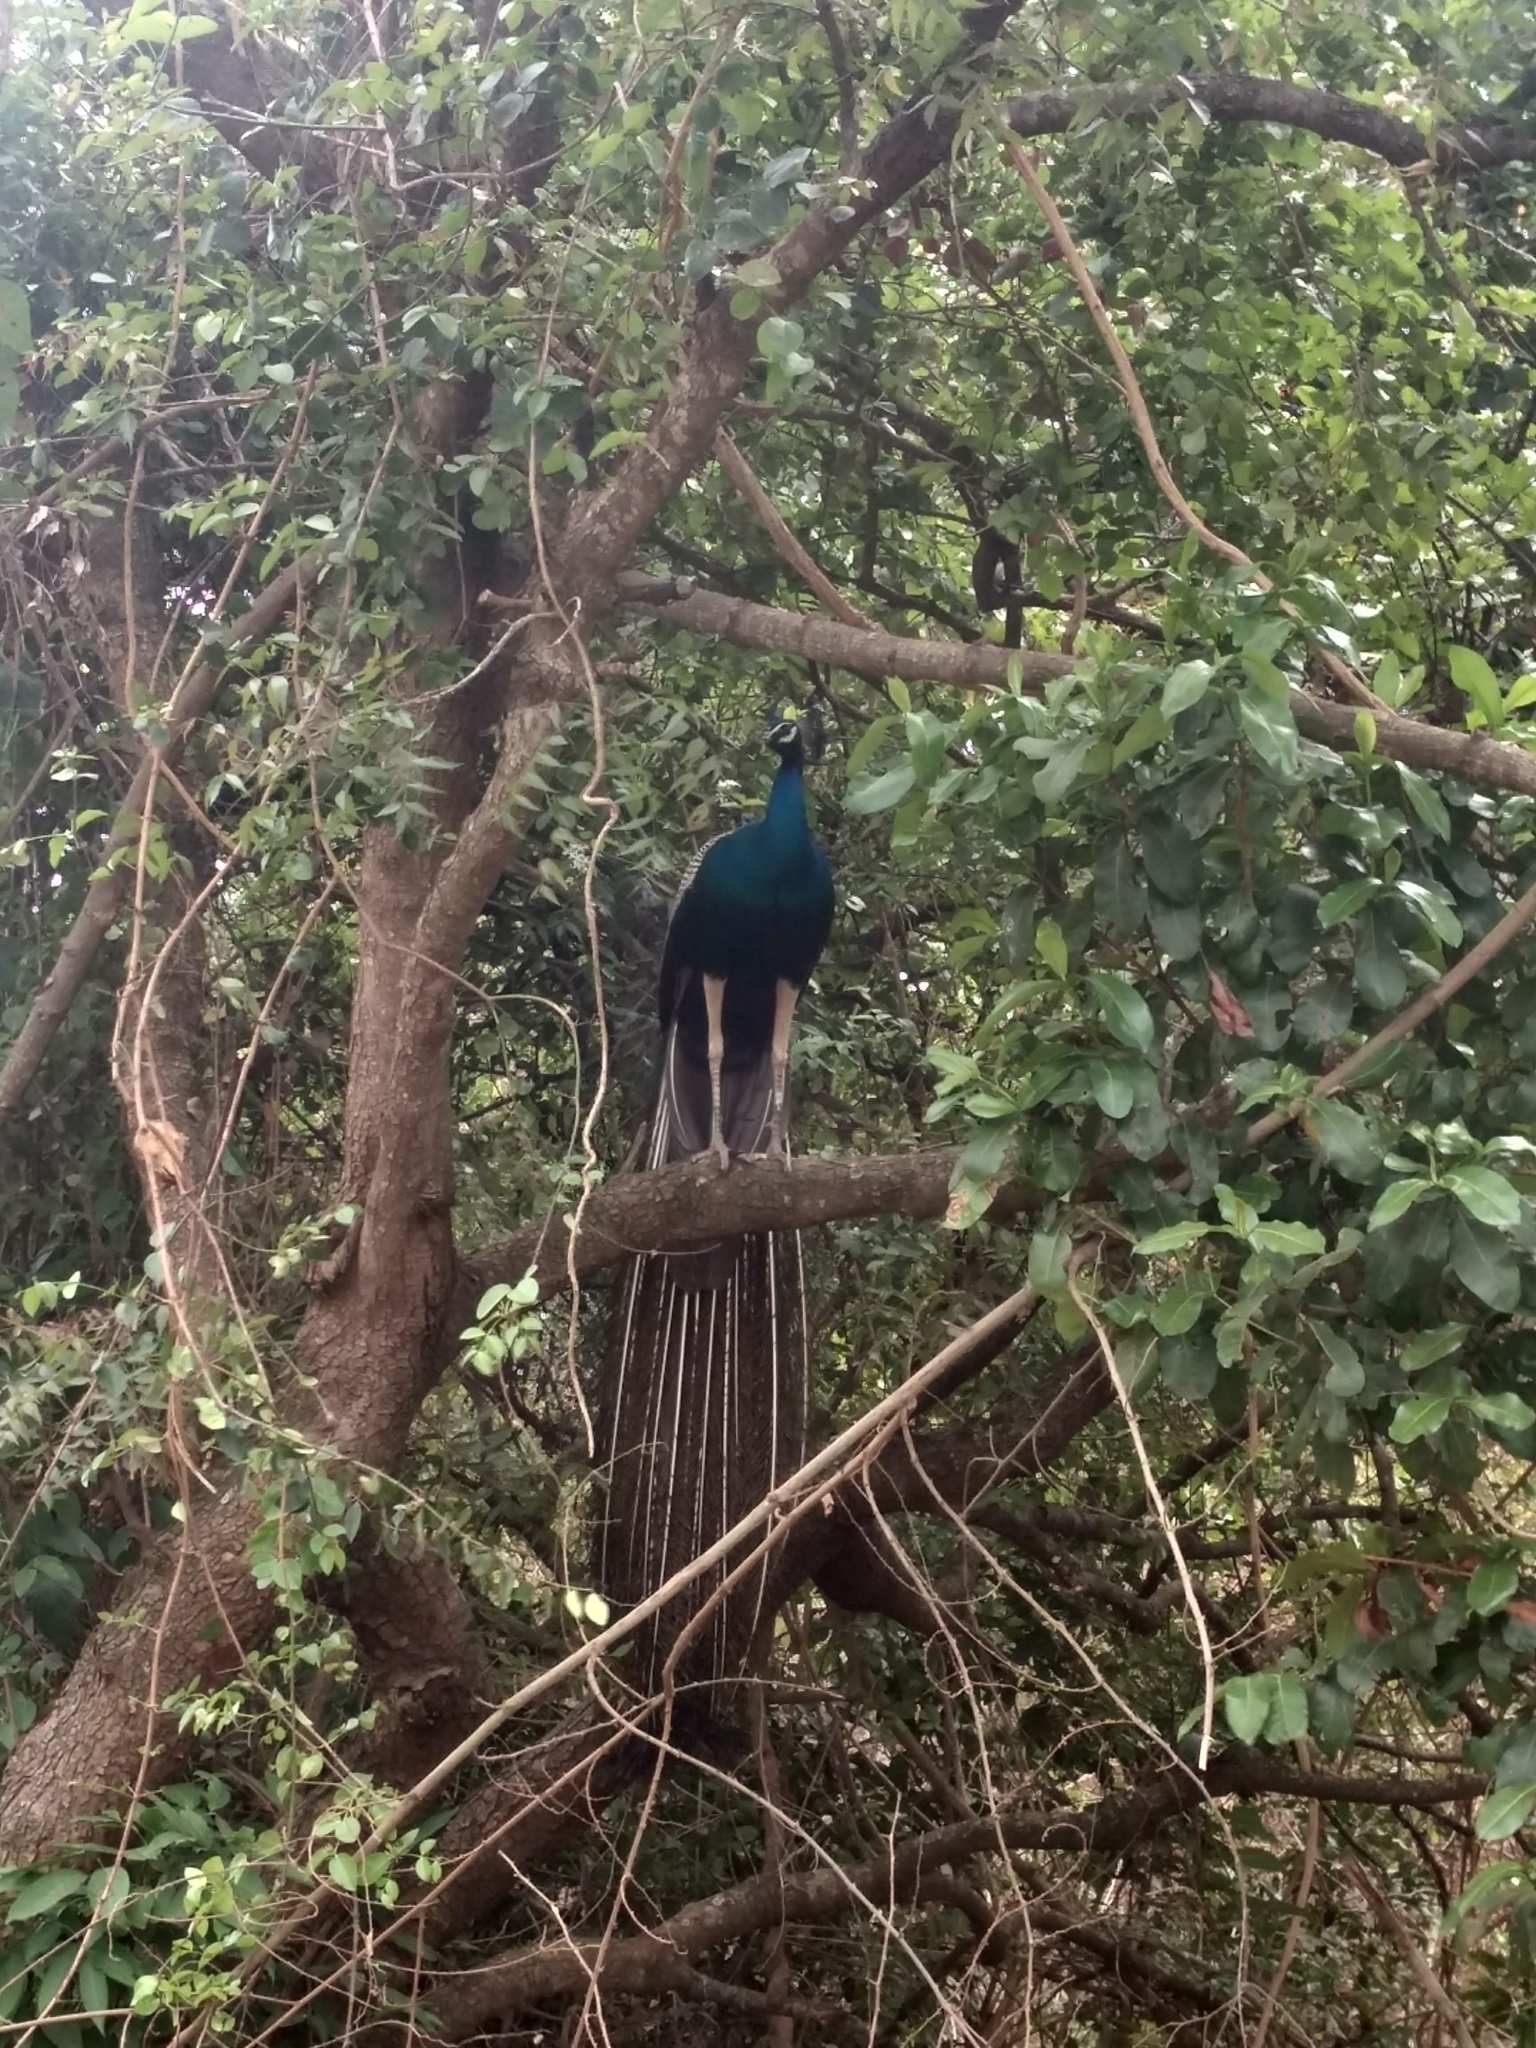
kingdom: Animalia
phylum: Chordata
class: Aves
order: Galliformes
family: Phasianidae
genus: Pavo
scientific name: Pavo cristatus
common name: Indian peafowl
